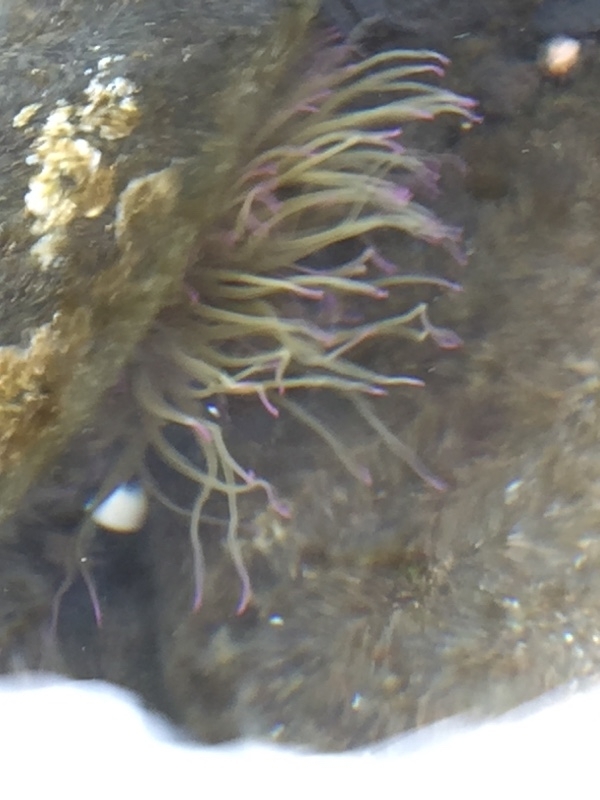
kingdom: Animalia
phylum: Cnidaria
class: Anthozoa
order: Actiniaria
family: Actiniidae
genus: Anemonia
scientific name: Anemonia viridis
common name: Snakelocks anemone
